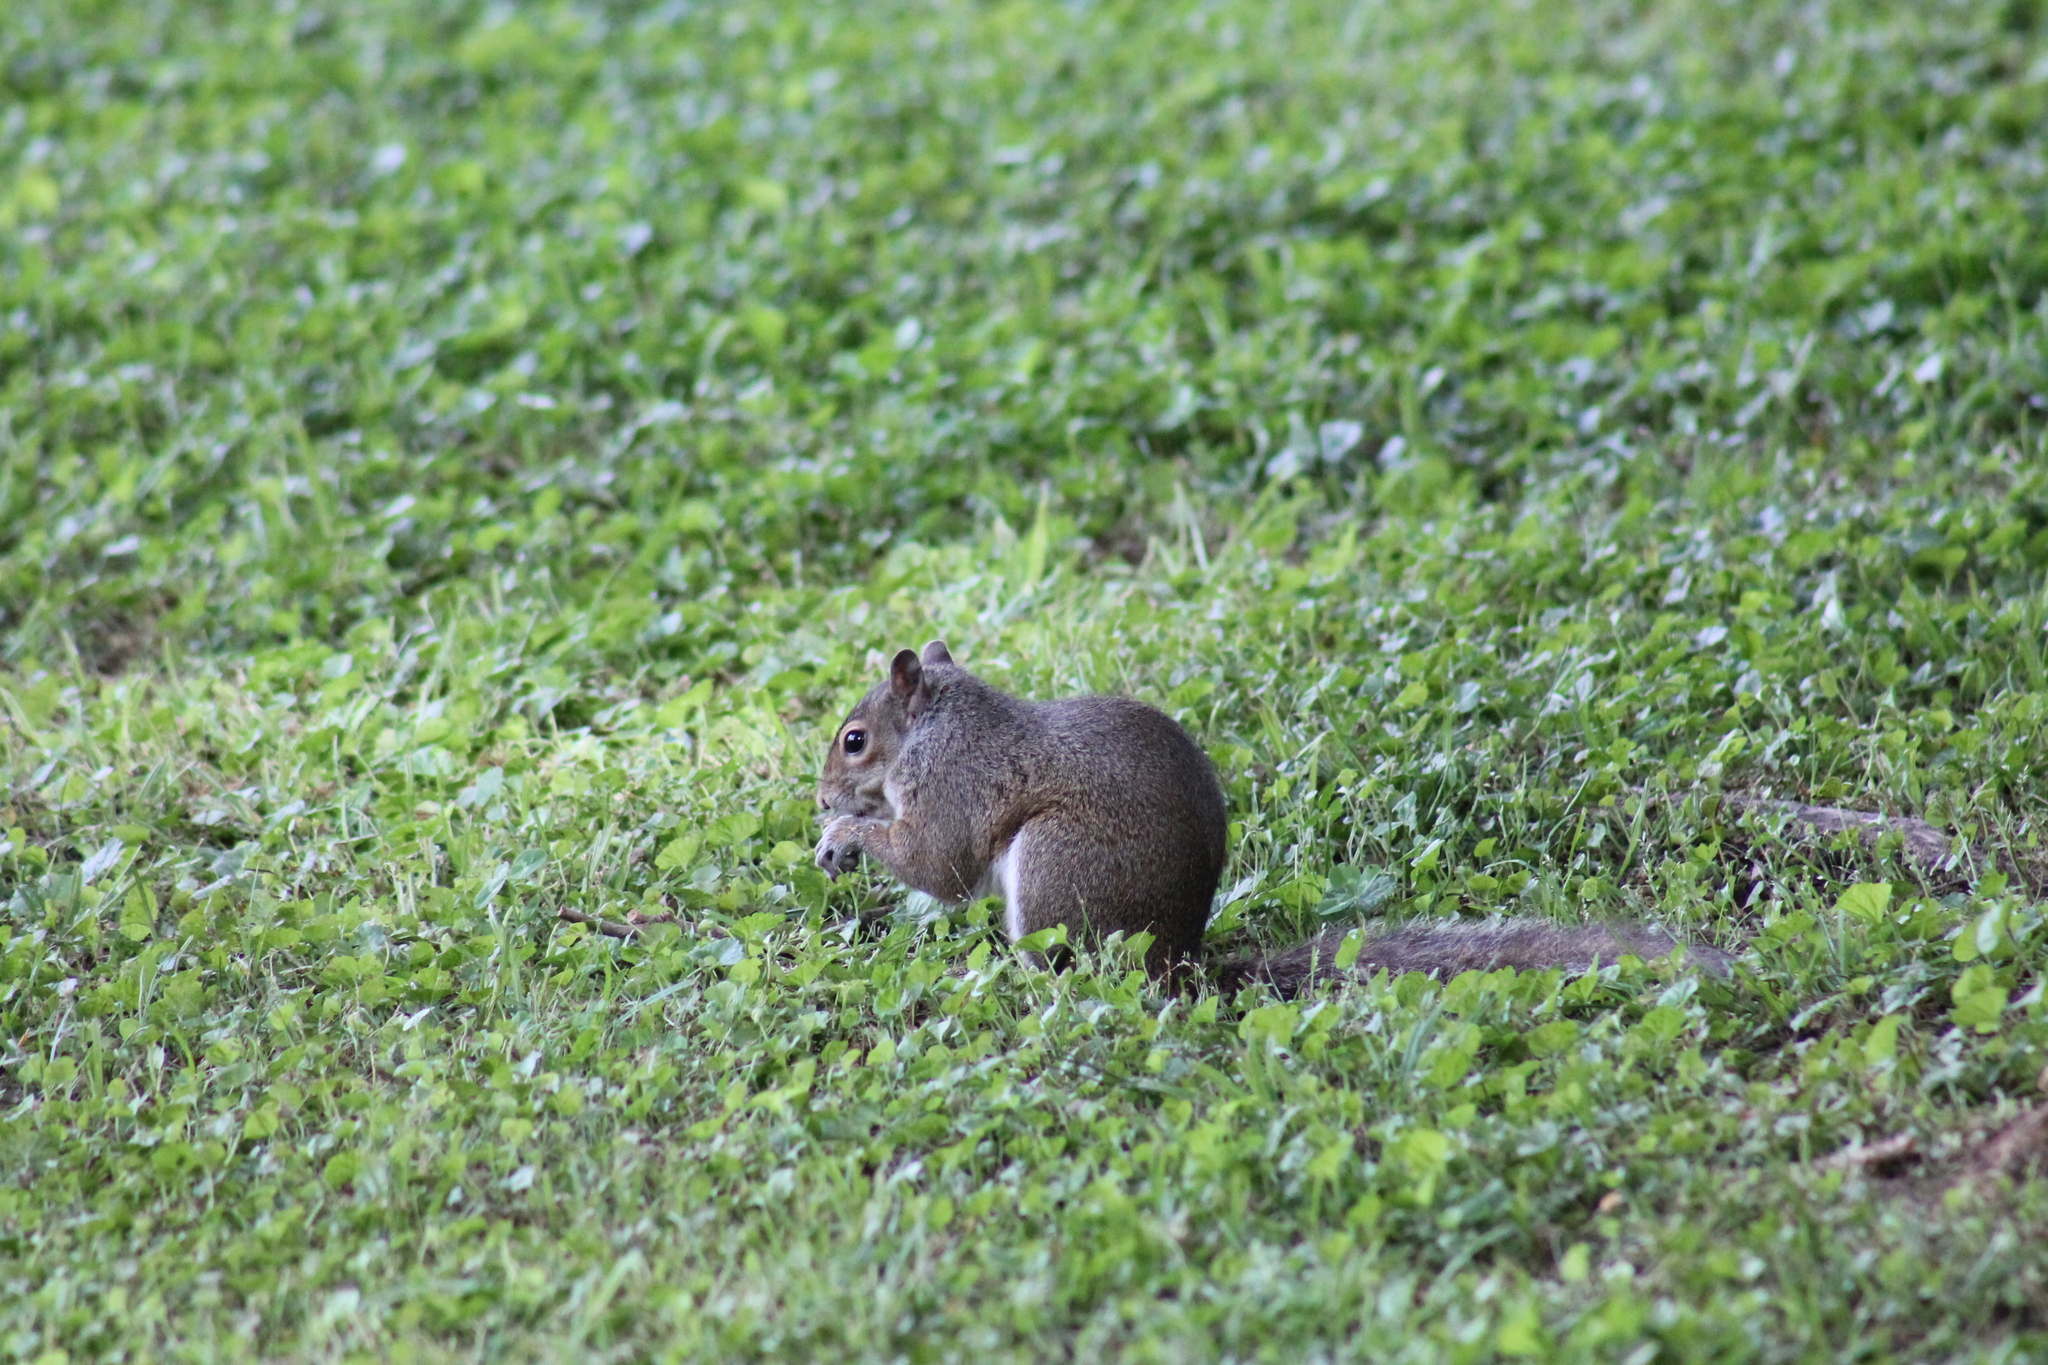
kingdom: Animalia
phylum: Chordata
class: Mammalia
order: Rodentia
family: Sciuridae
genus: Sciurus
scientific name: Sciurus carolinensis
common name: Eastern gray squirrel
